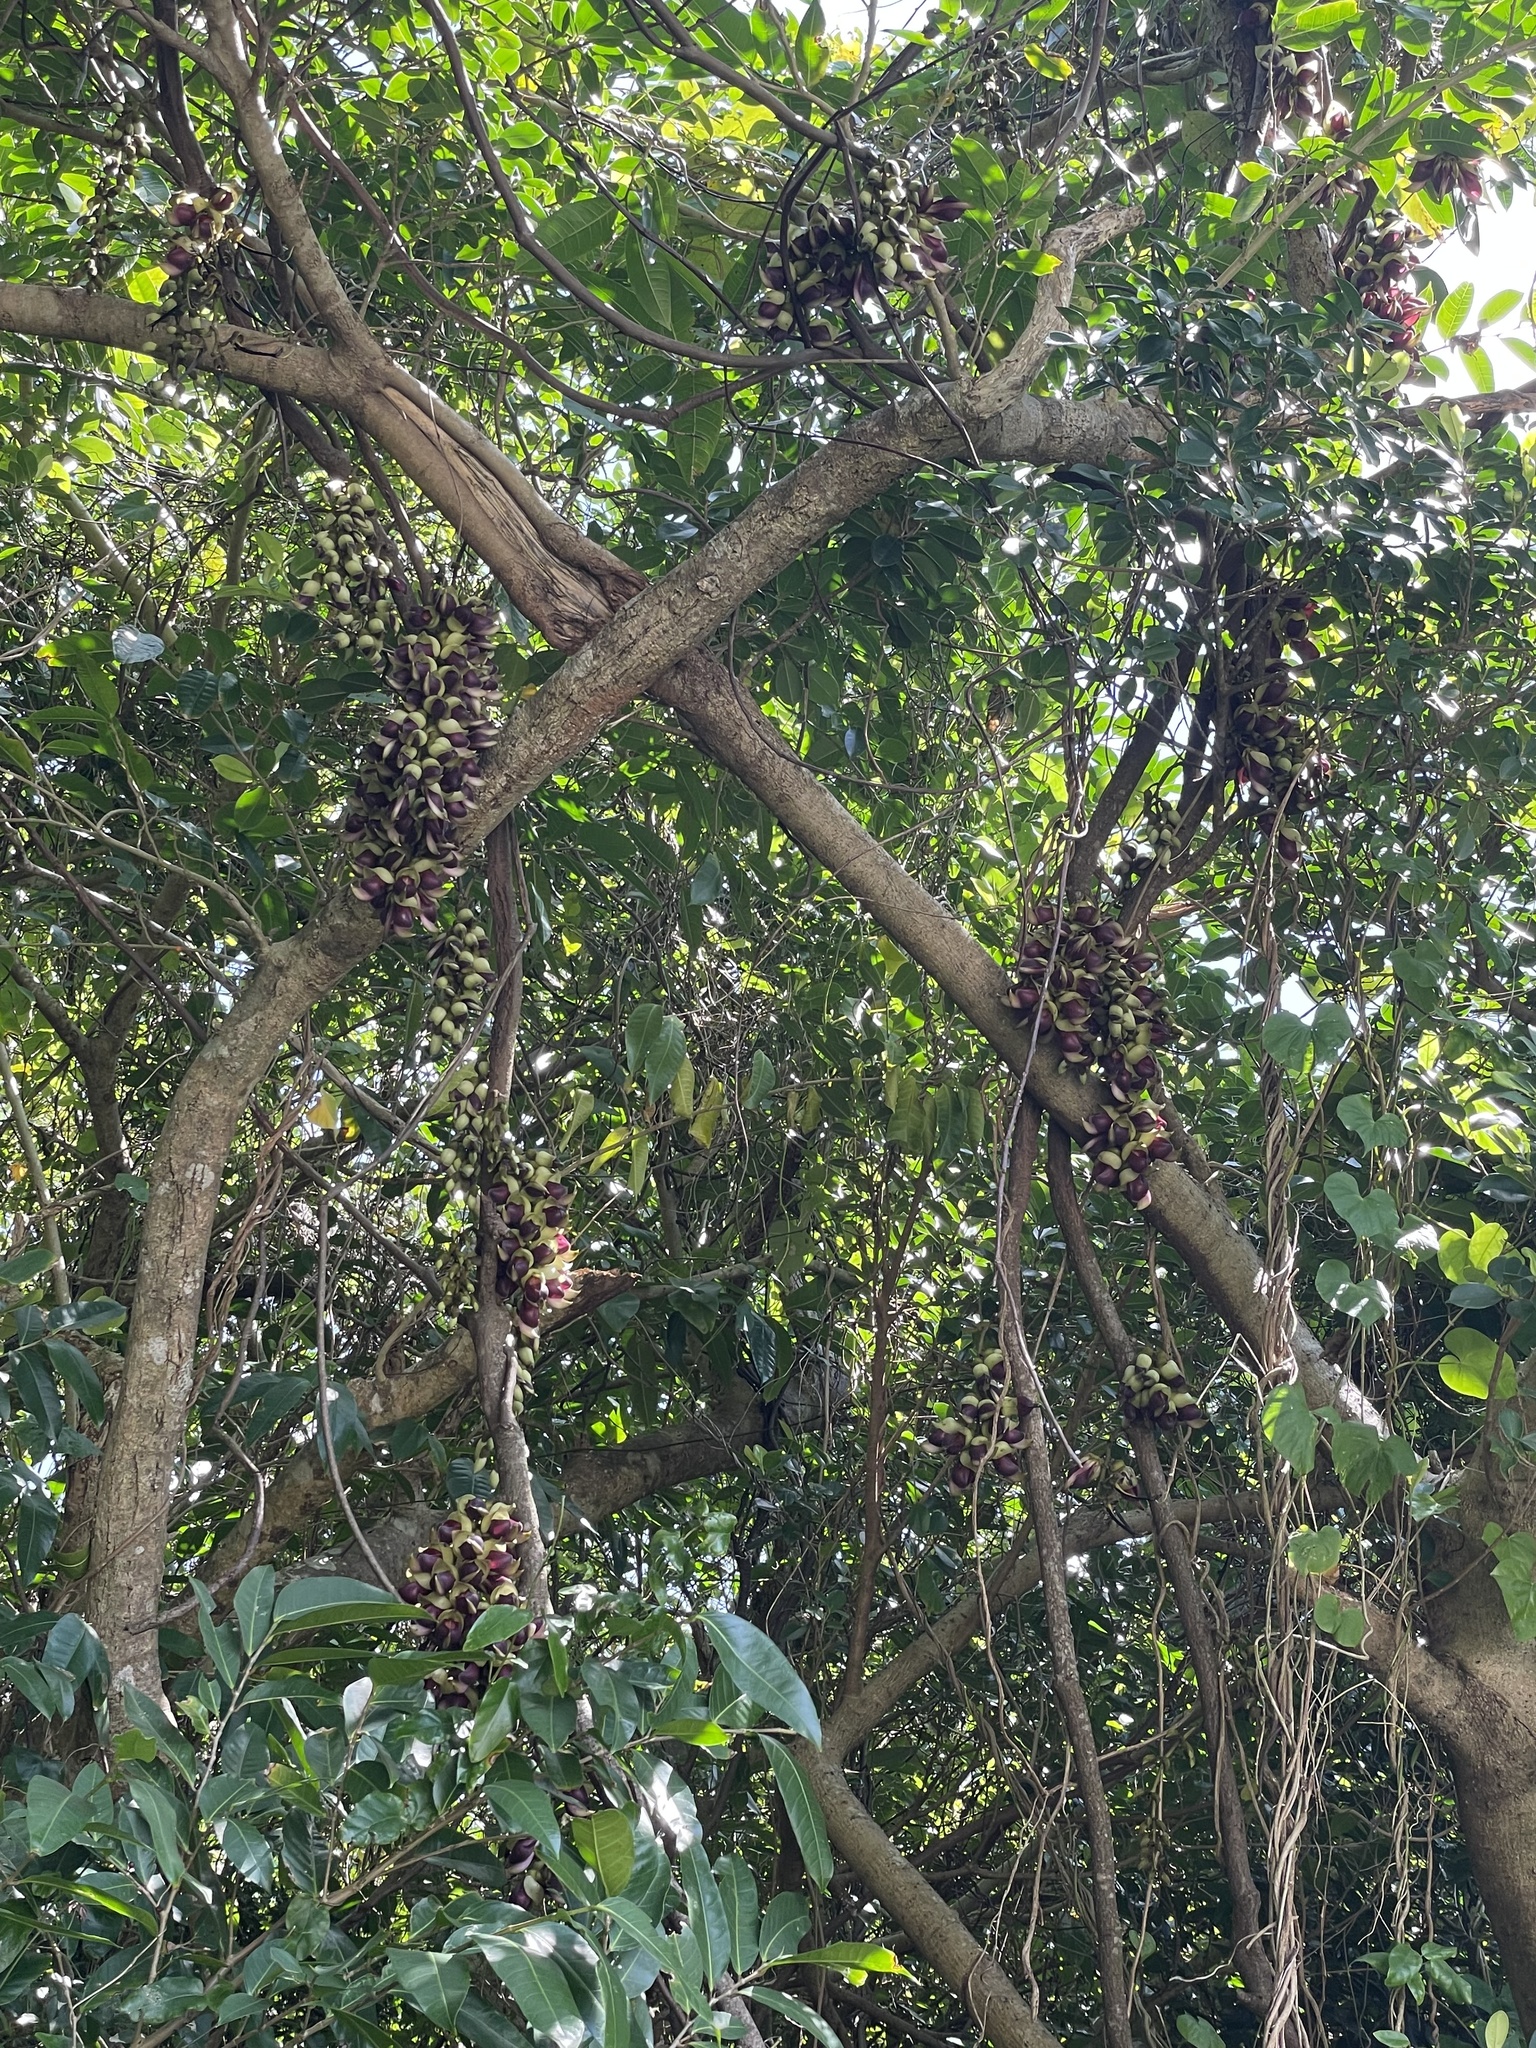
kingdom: Plantae
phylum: Tracheophyta
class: Magnoliopsida
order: Fabales
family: Fabaceae
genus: Mucuna
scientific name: Mucuna macrocarpa
